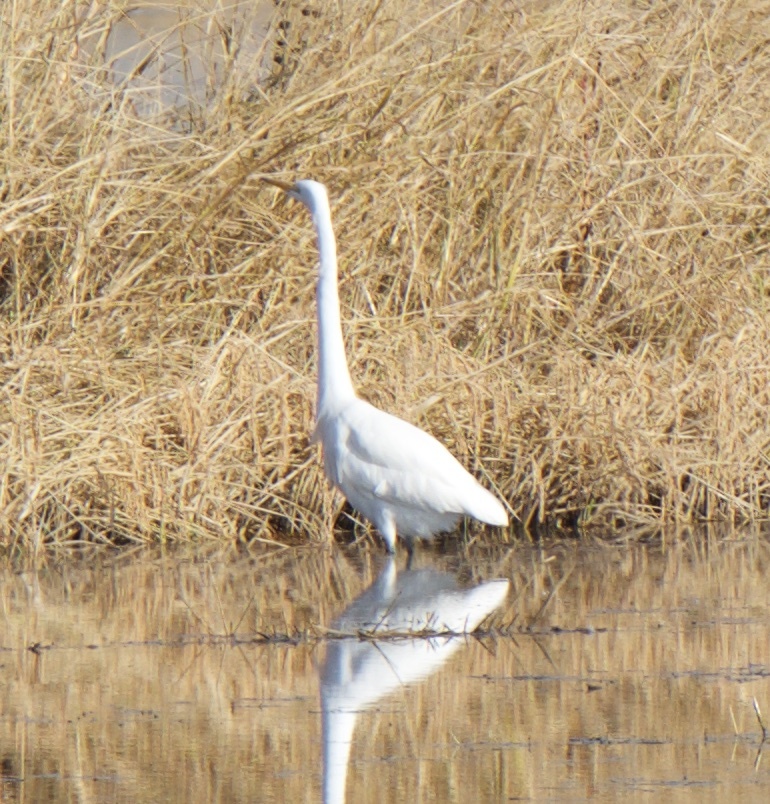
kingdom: Animalia
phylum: Chordata
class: Aves
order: Pelecaniformes
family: Ardeidae
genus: Ardea
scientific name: Ardea alba
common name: Great egret
